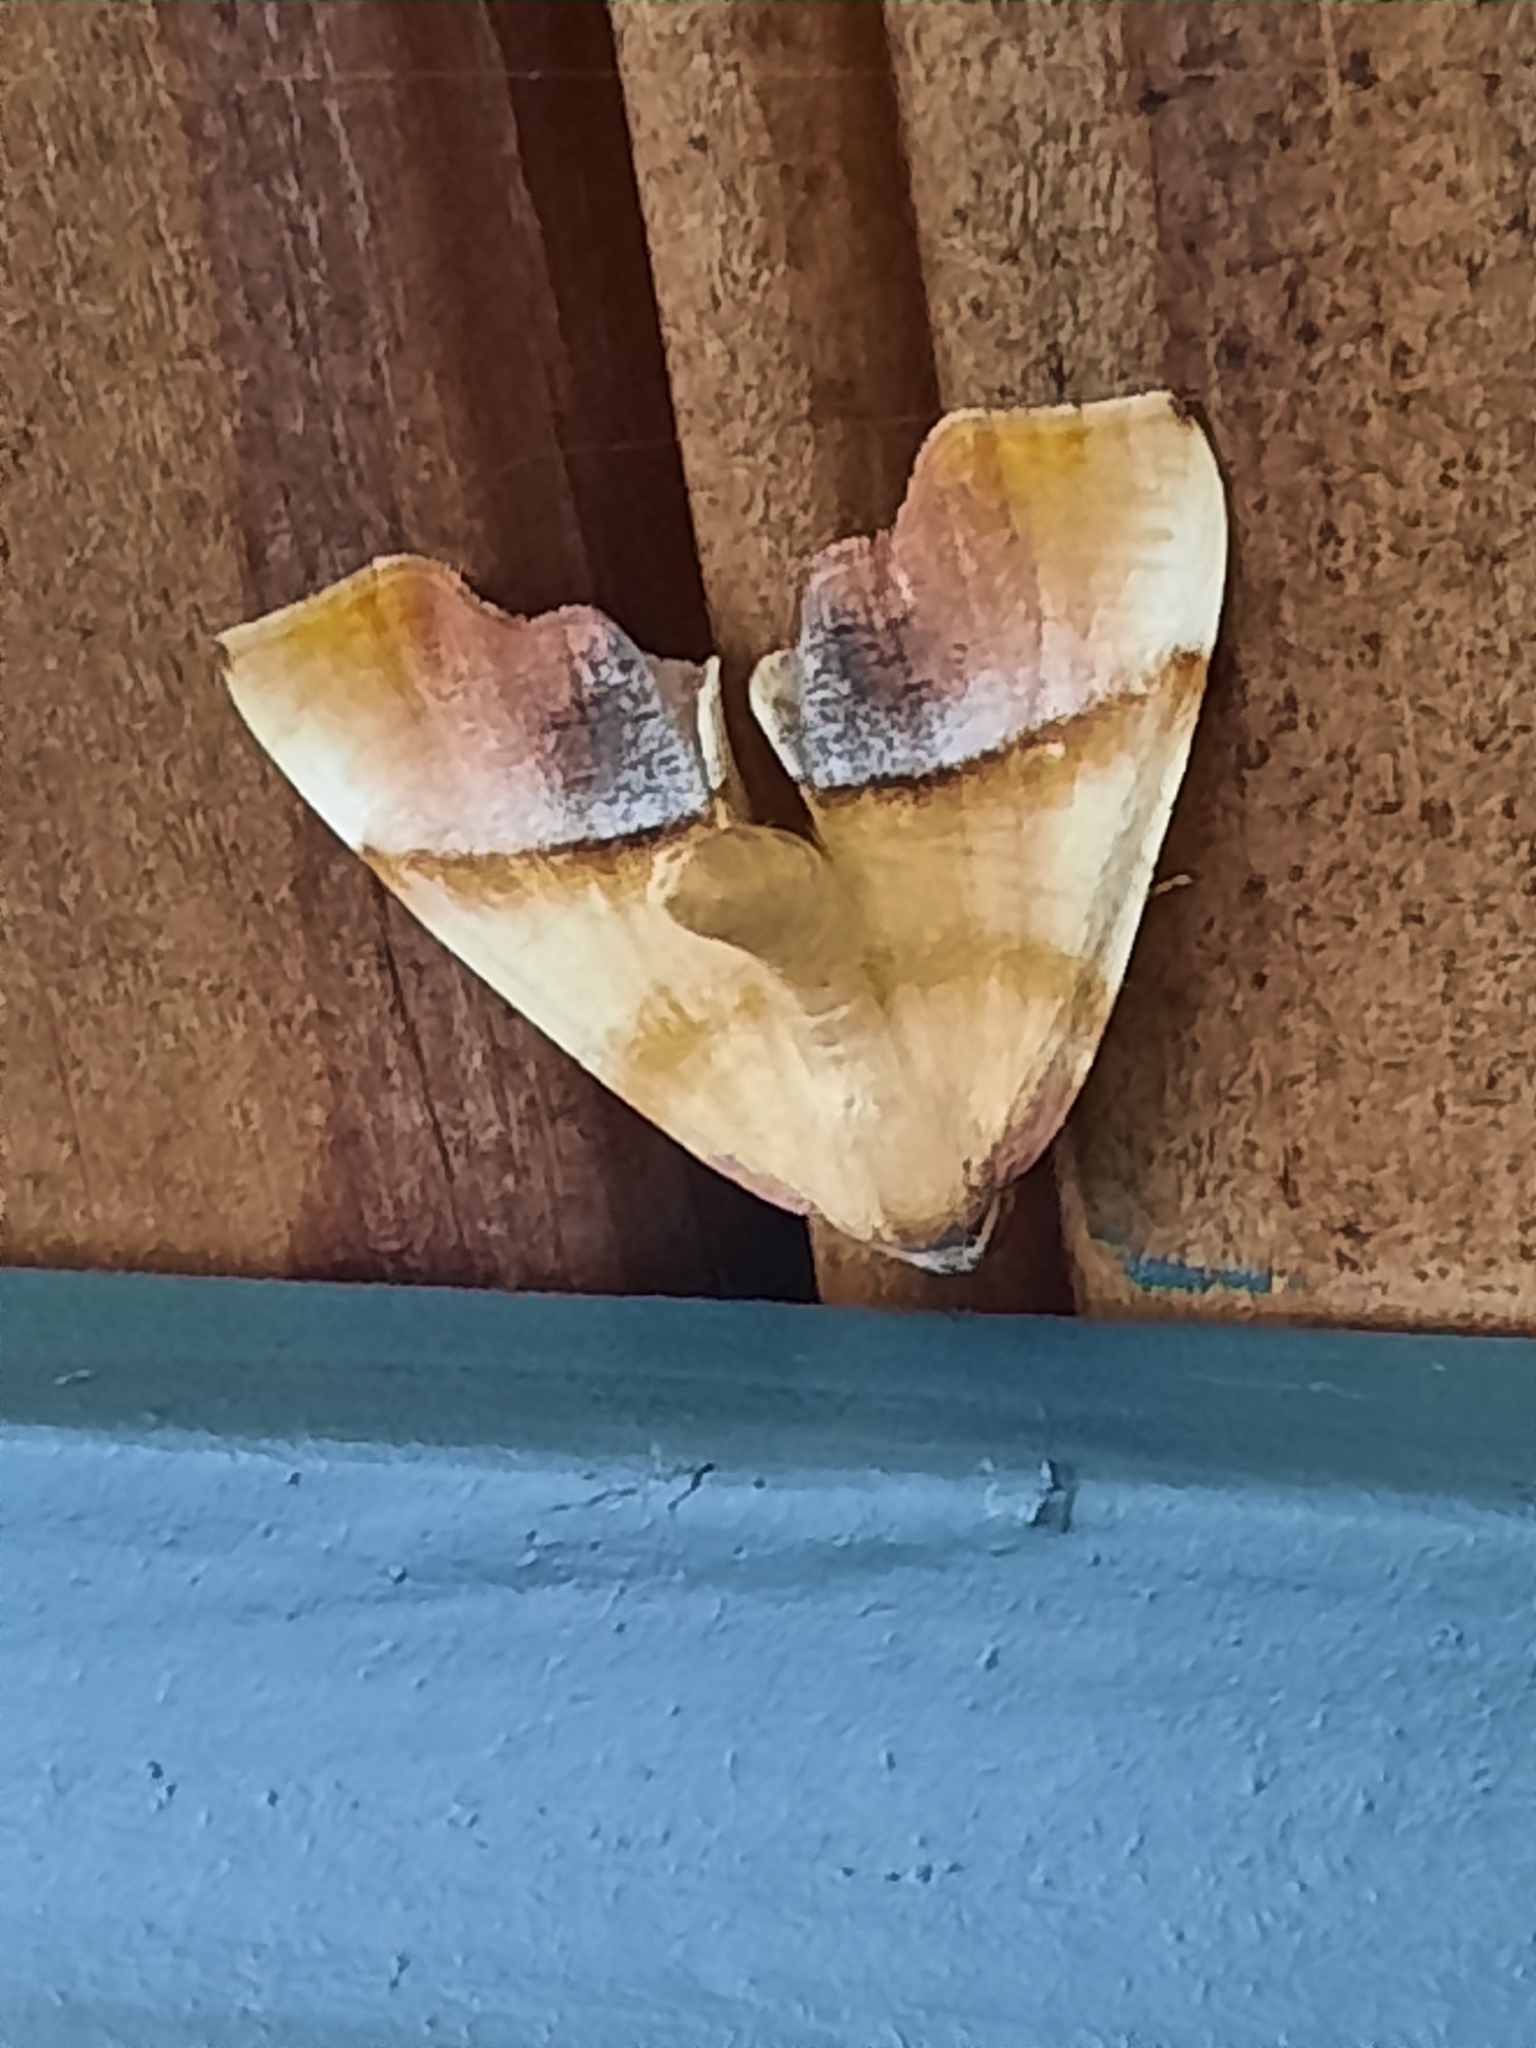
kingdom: Animalia
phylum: Arthropoda
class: Insecta
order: Lepidoptera
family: Geometridae
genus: Plagodis
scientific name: Plagodis phlogosaria
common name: Straight-lined plagodis
